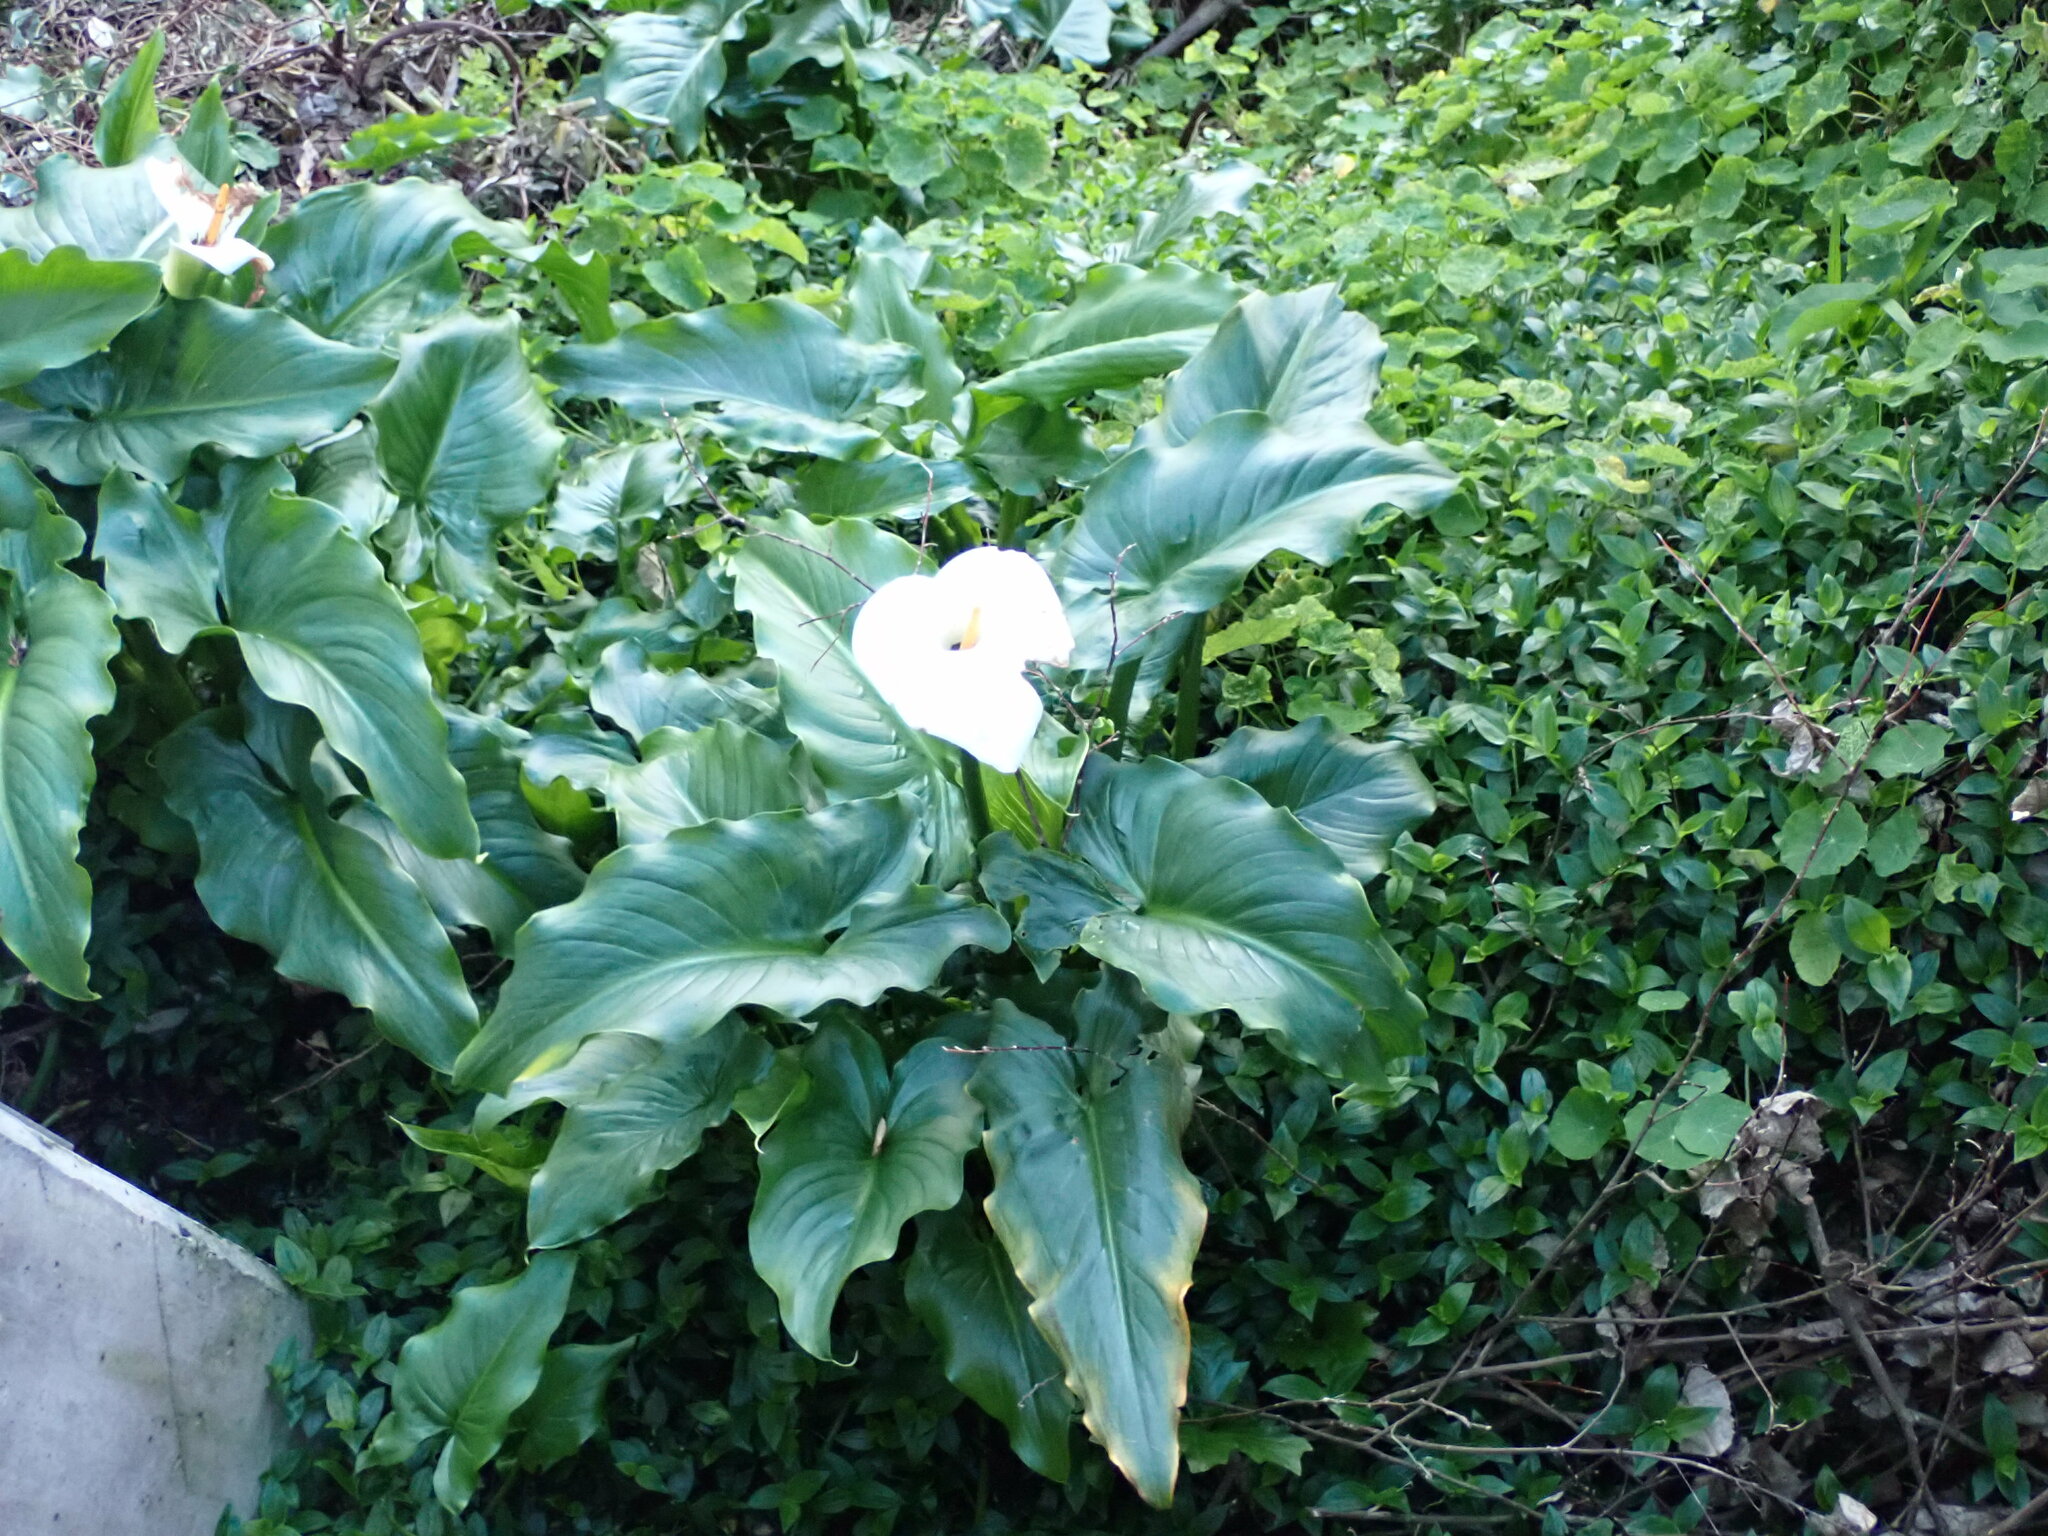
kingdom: Plantae
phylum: Tracheophyta
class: Liliopsida
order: Alismatales
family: Araceae
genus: Zantedeschia
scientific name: Zantedeschia aethiopica
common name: Altar-lily
